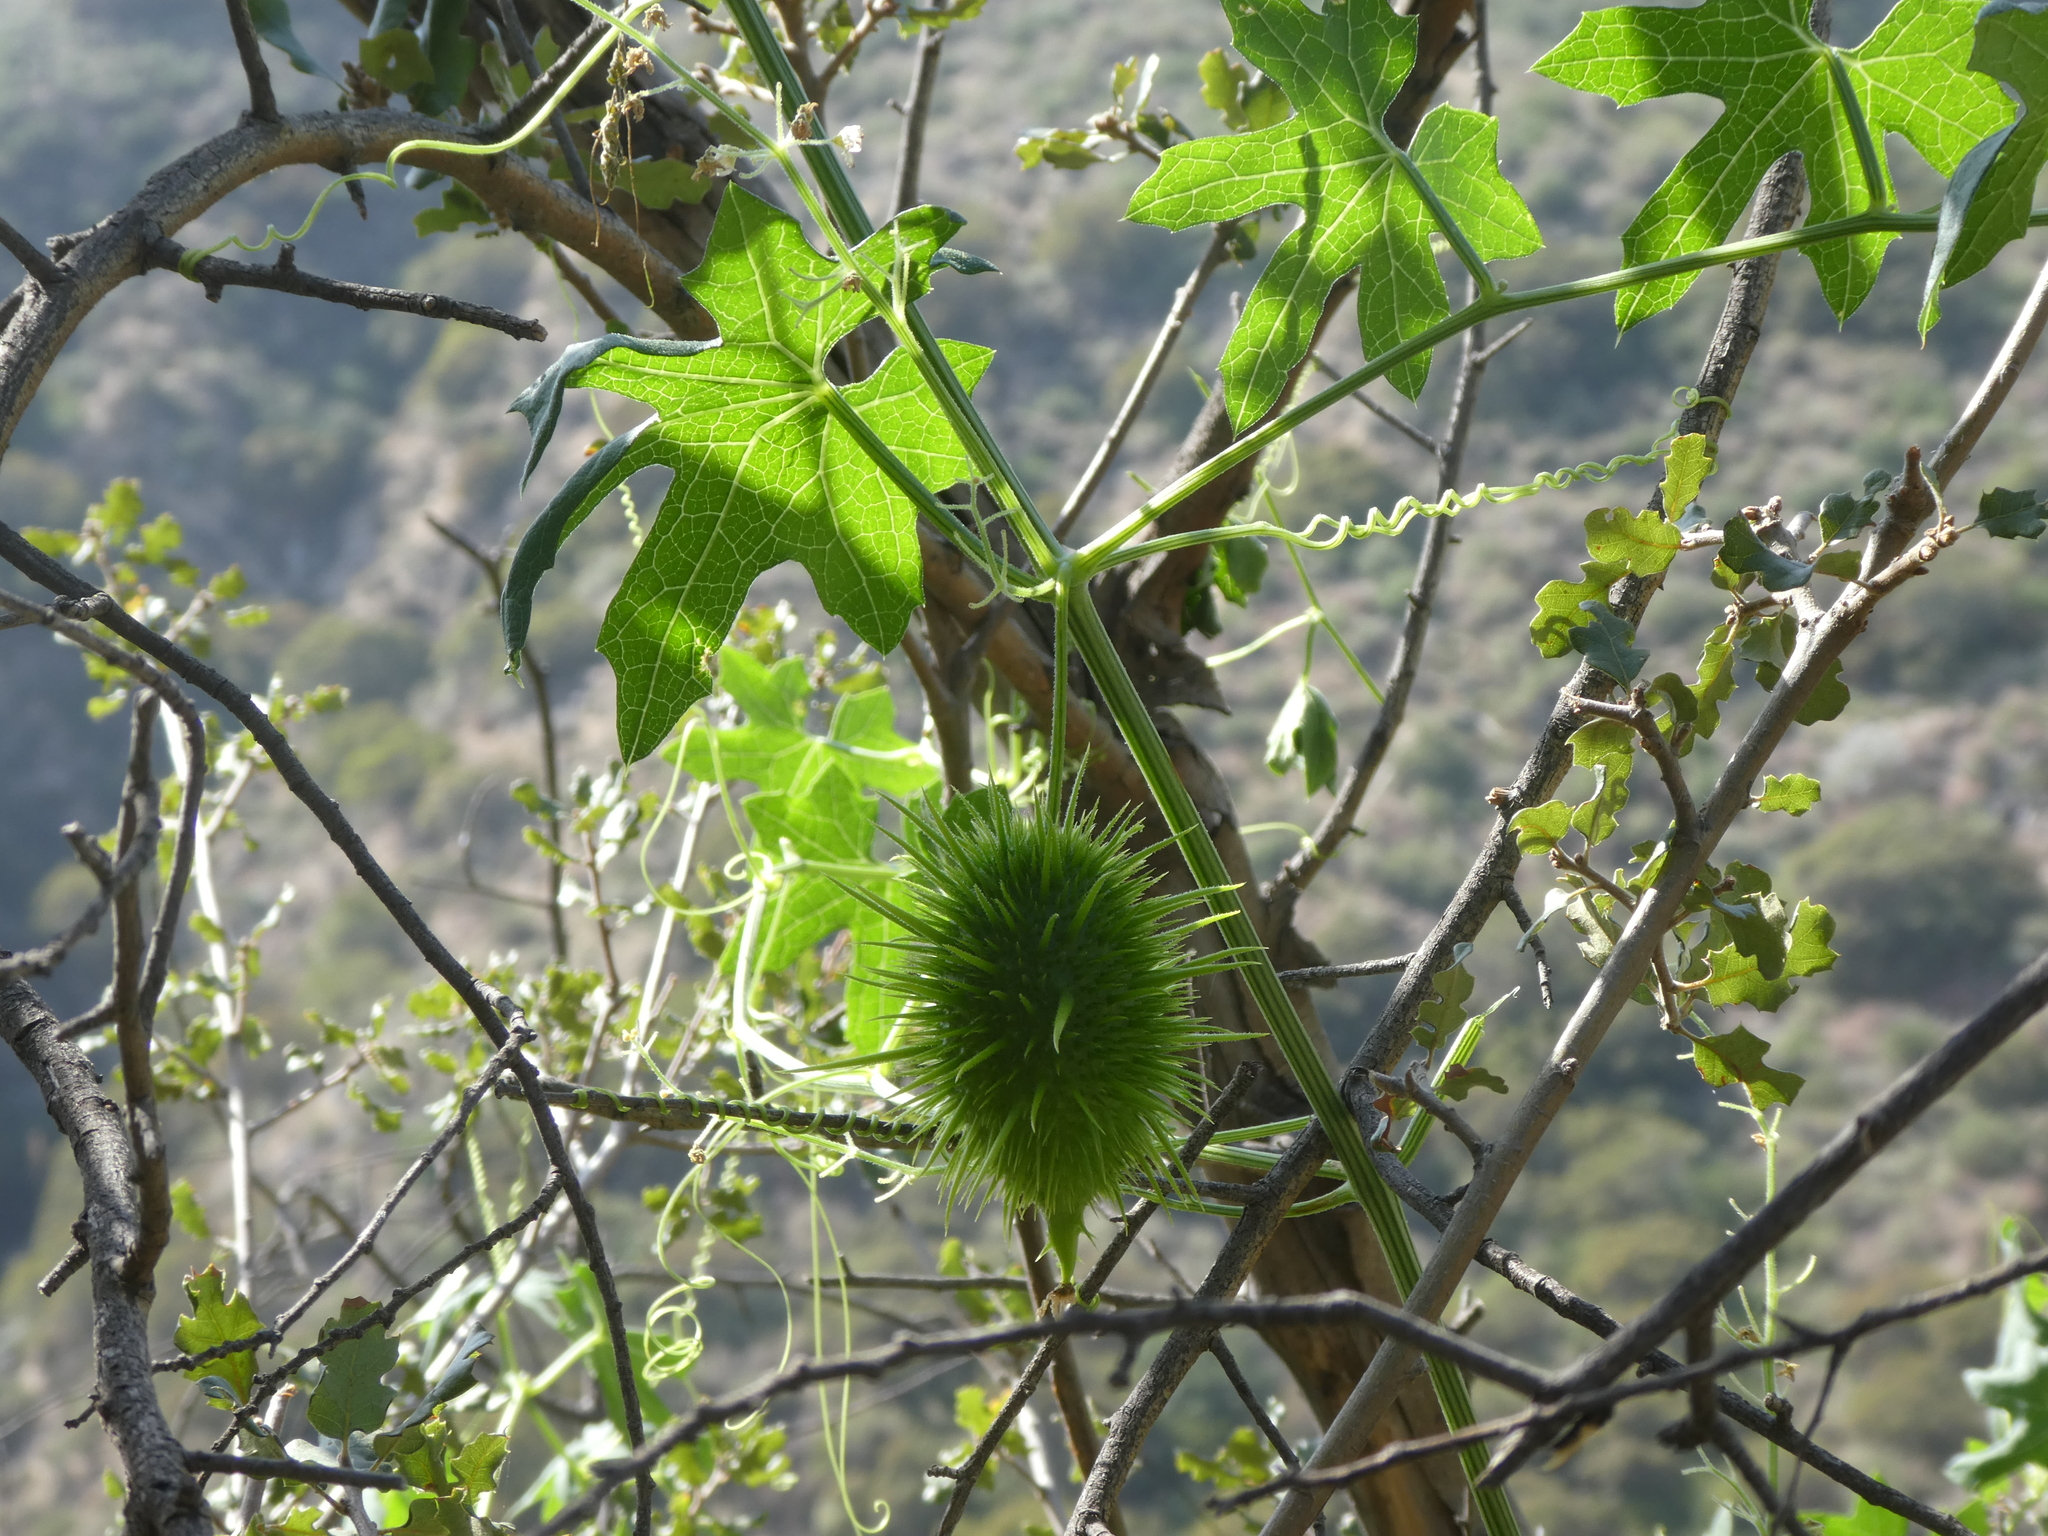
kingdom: Plantae
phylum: Tracheophyta
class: Magnoliopsida
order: Cucurbitales
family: Cucurbitaceae
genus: Marah
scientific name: Marah macrocarpa
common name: Cucamonga manroot
